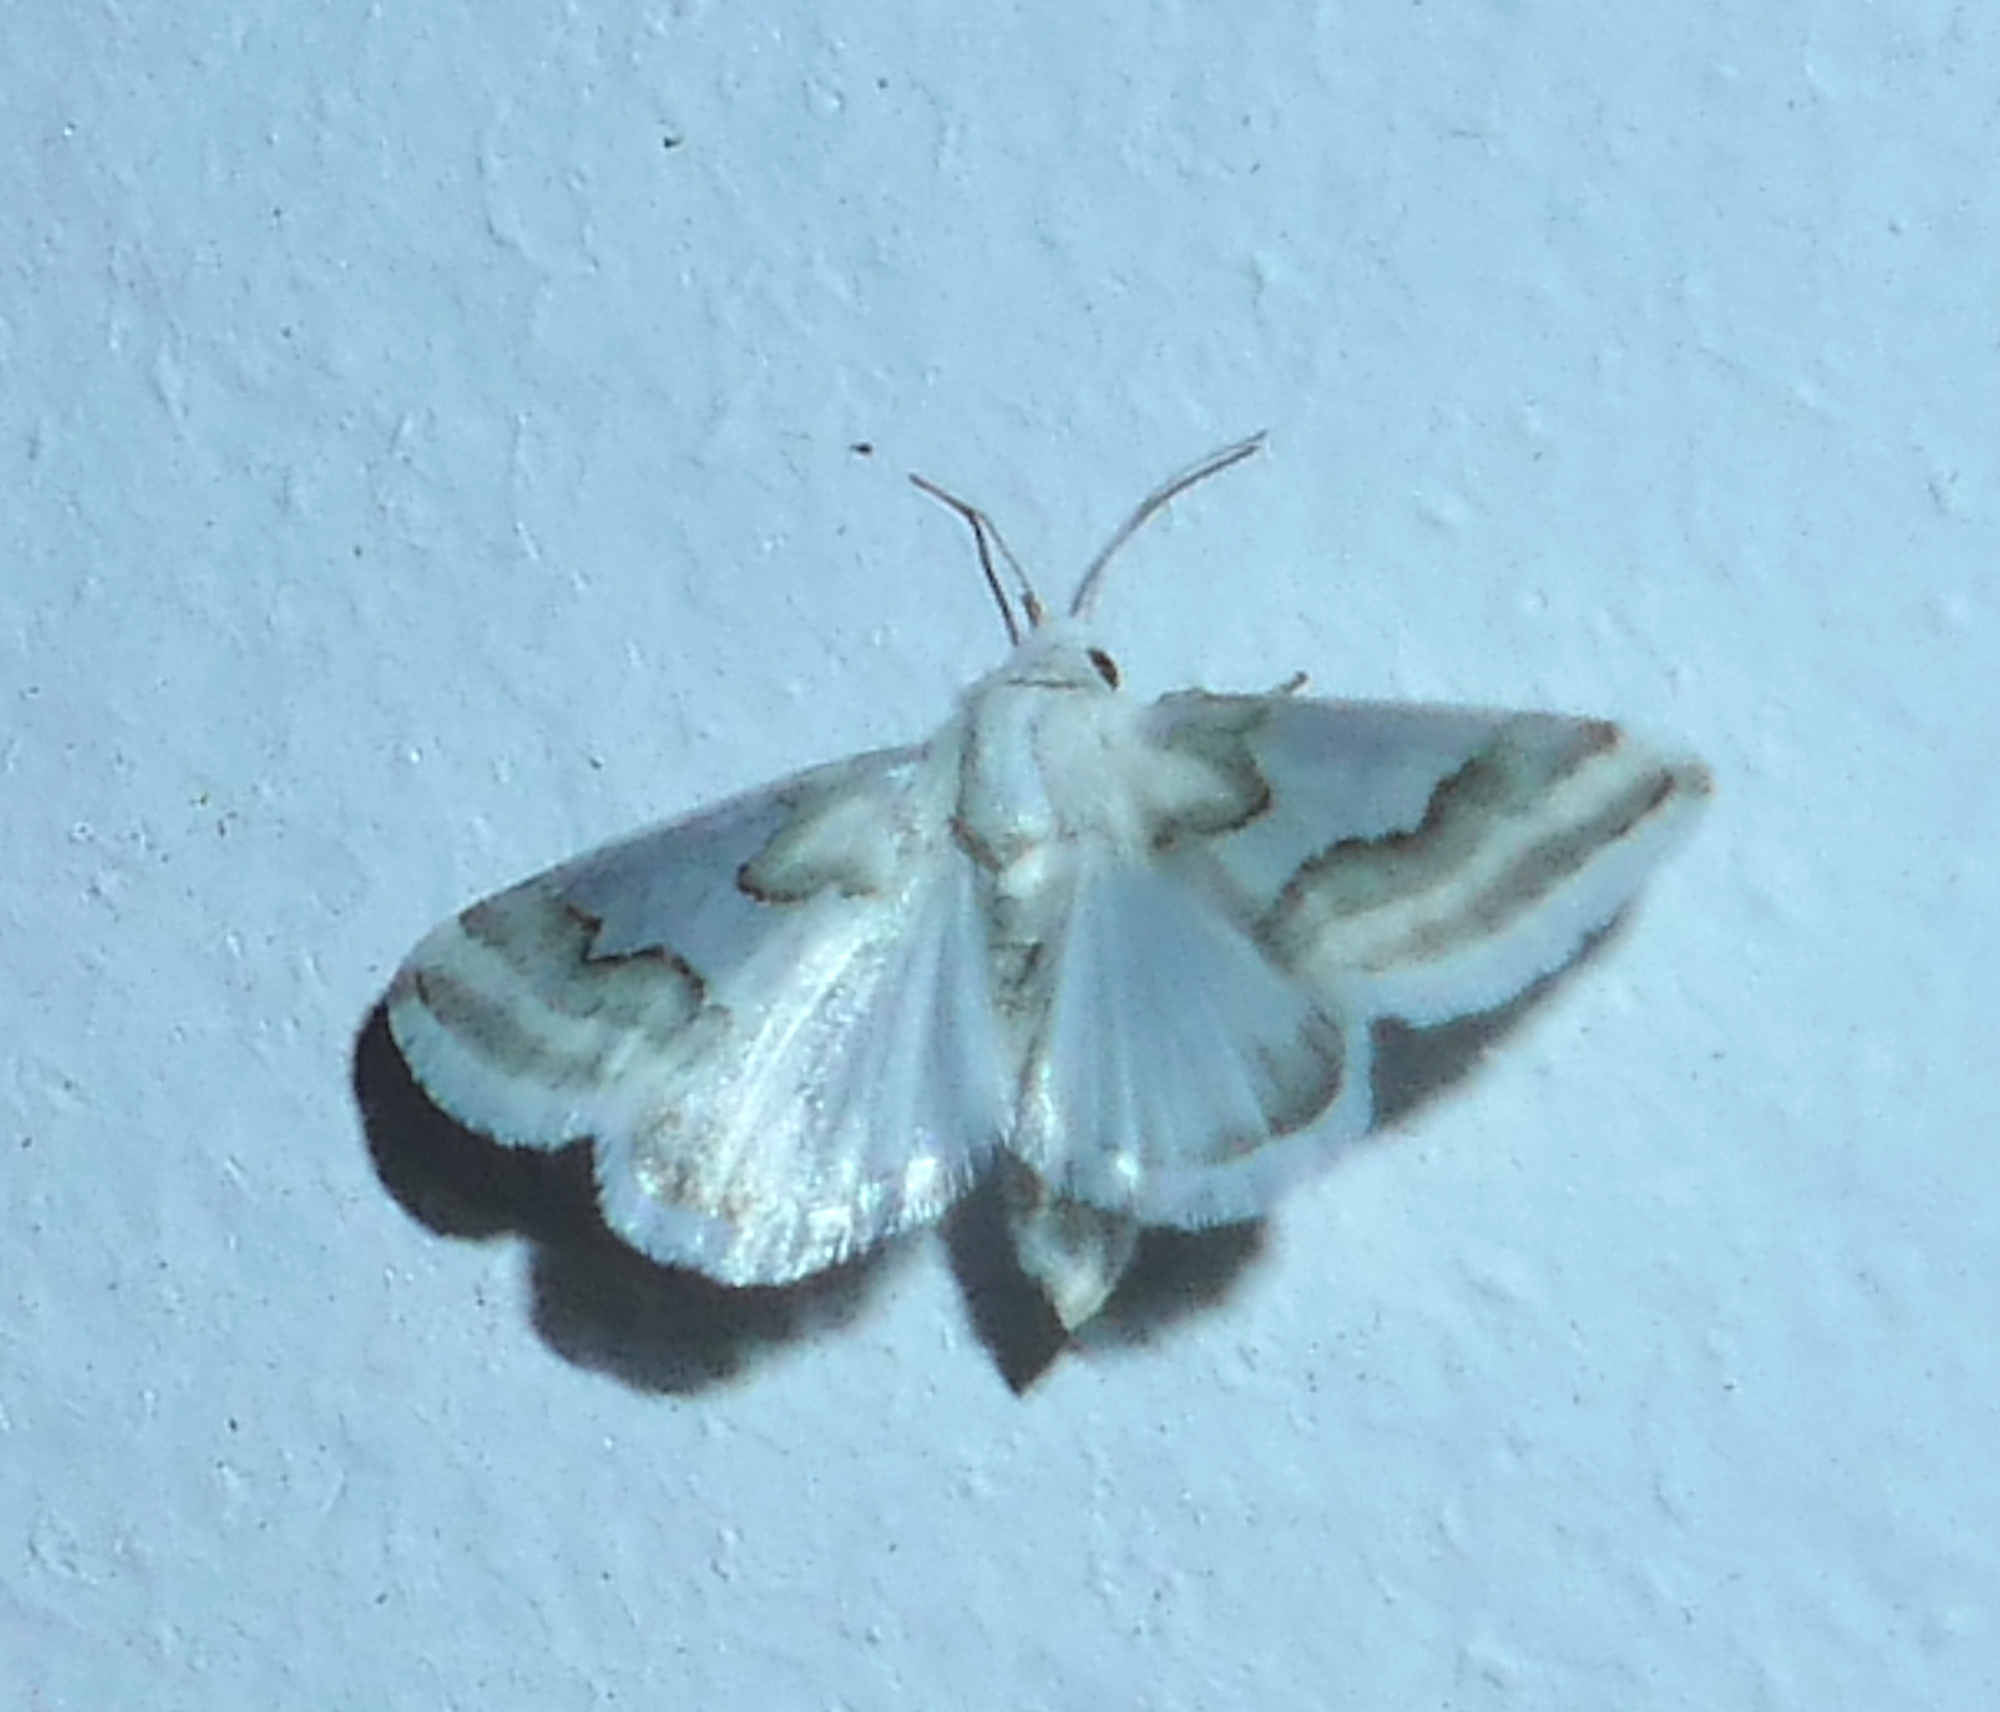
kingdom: Animalia
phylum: Arthropoda
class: Insecta
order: Lepidoptera
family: Noctuidae
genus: Schinia
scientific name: Schinia hulstia
